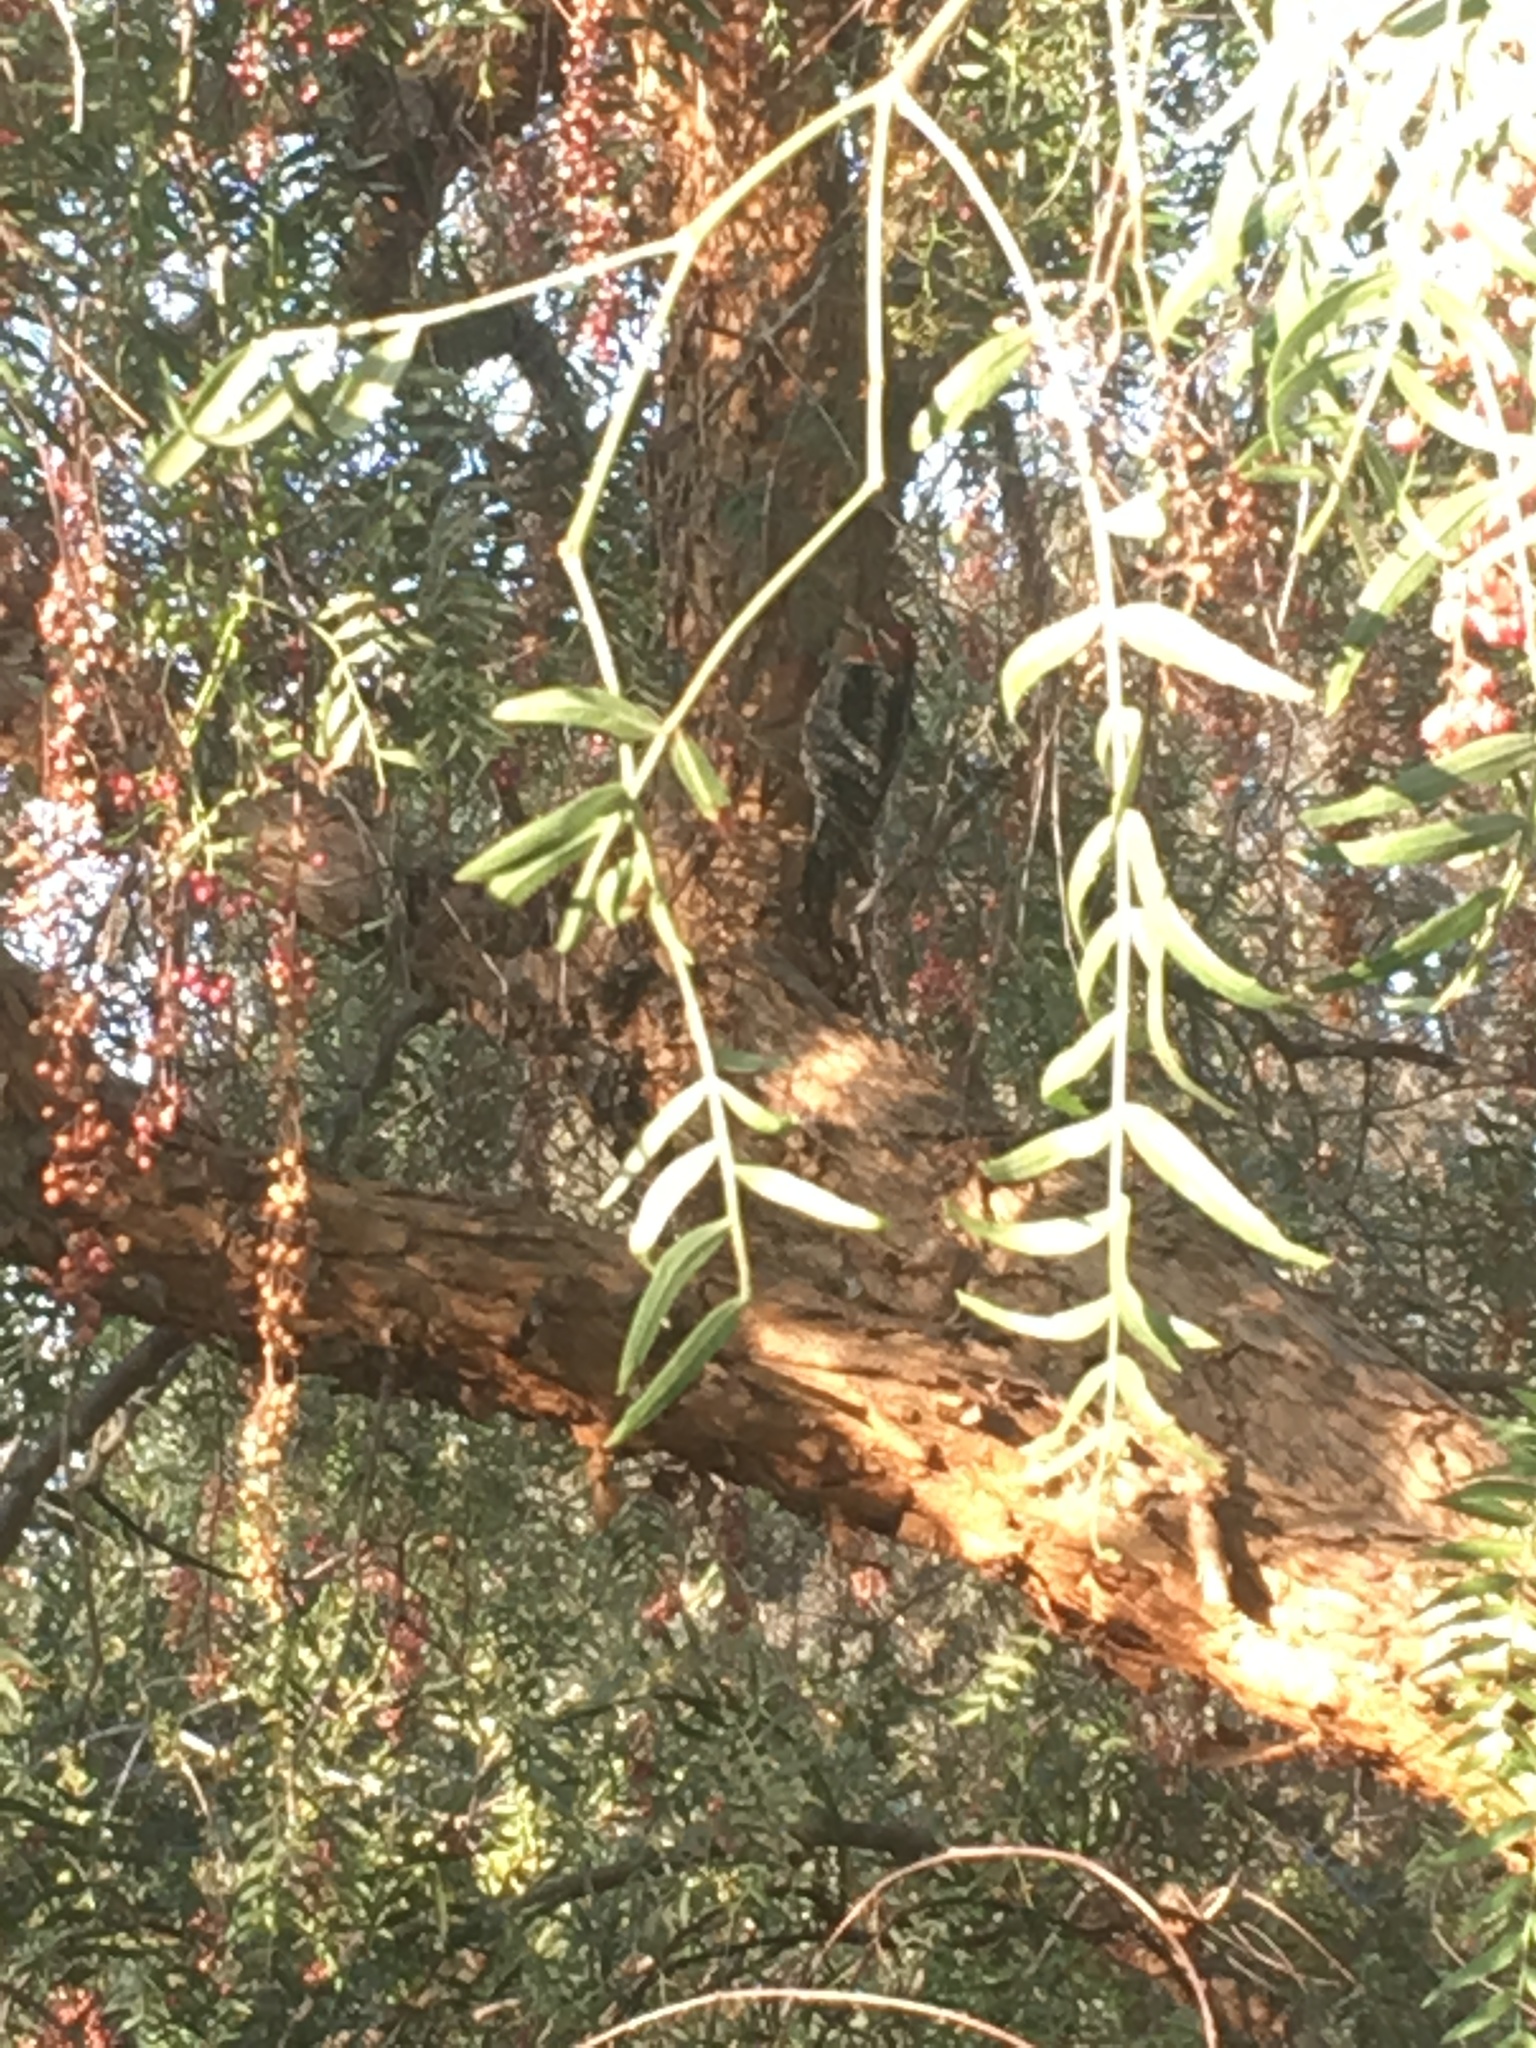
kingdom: Animalia
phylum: Chordata
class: Aves
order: Piciformes
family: Picidae
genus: Sphyrapicus
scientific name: Sphyrapicus
